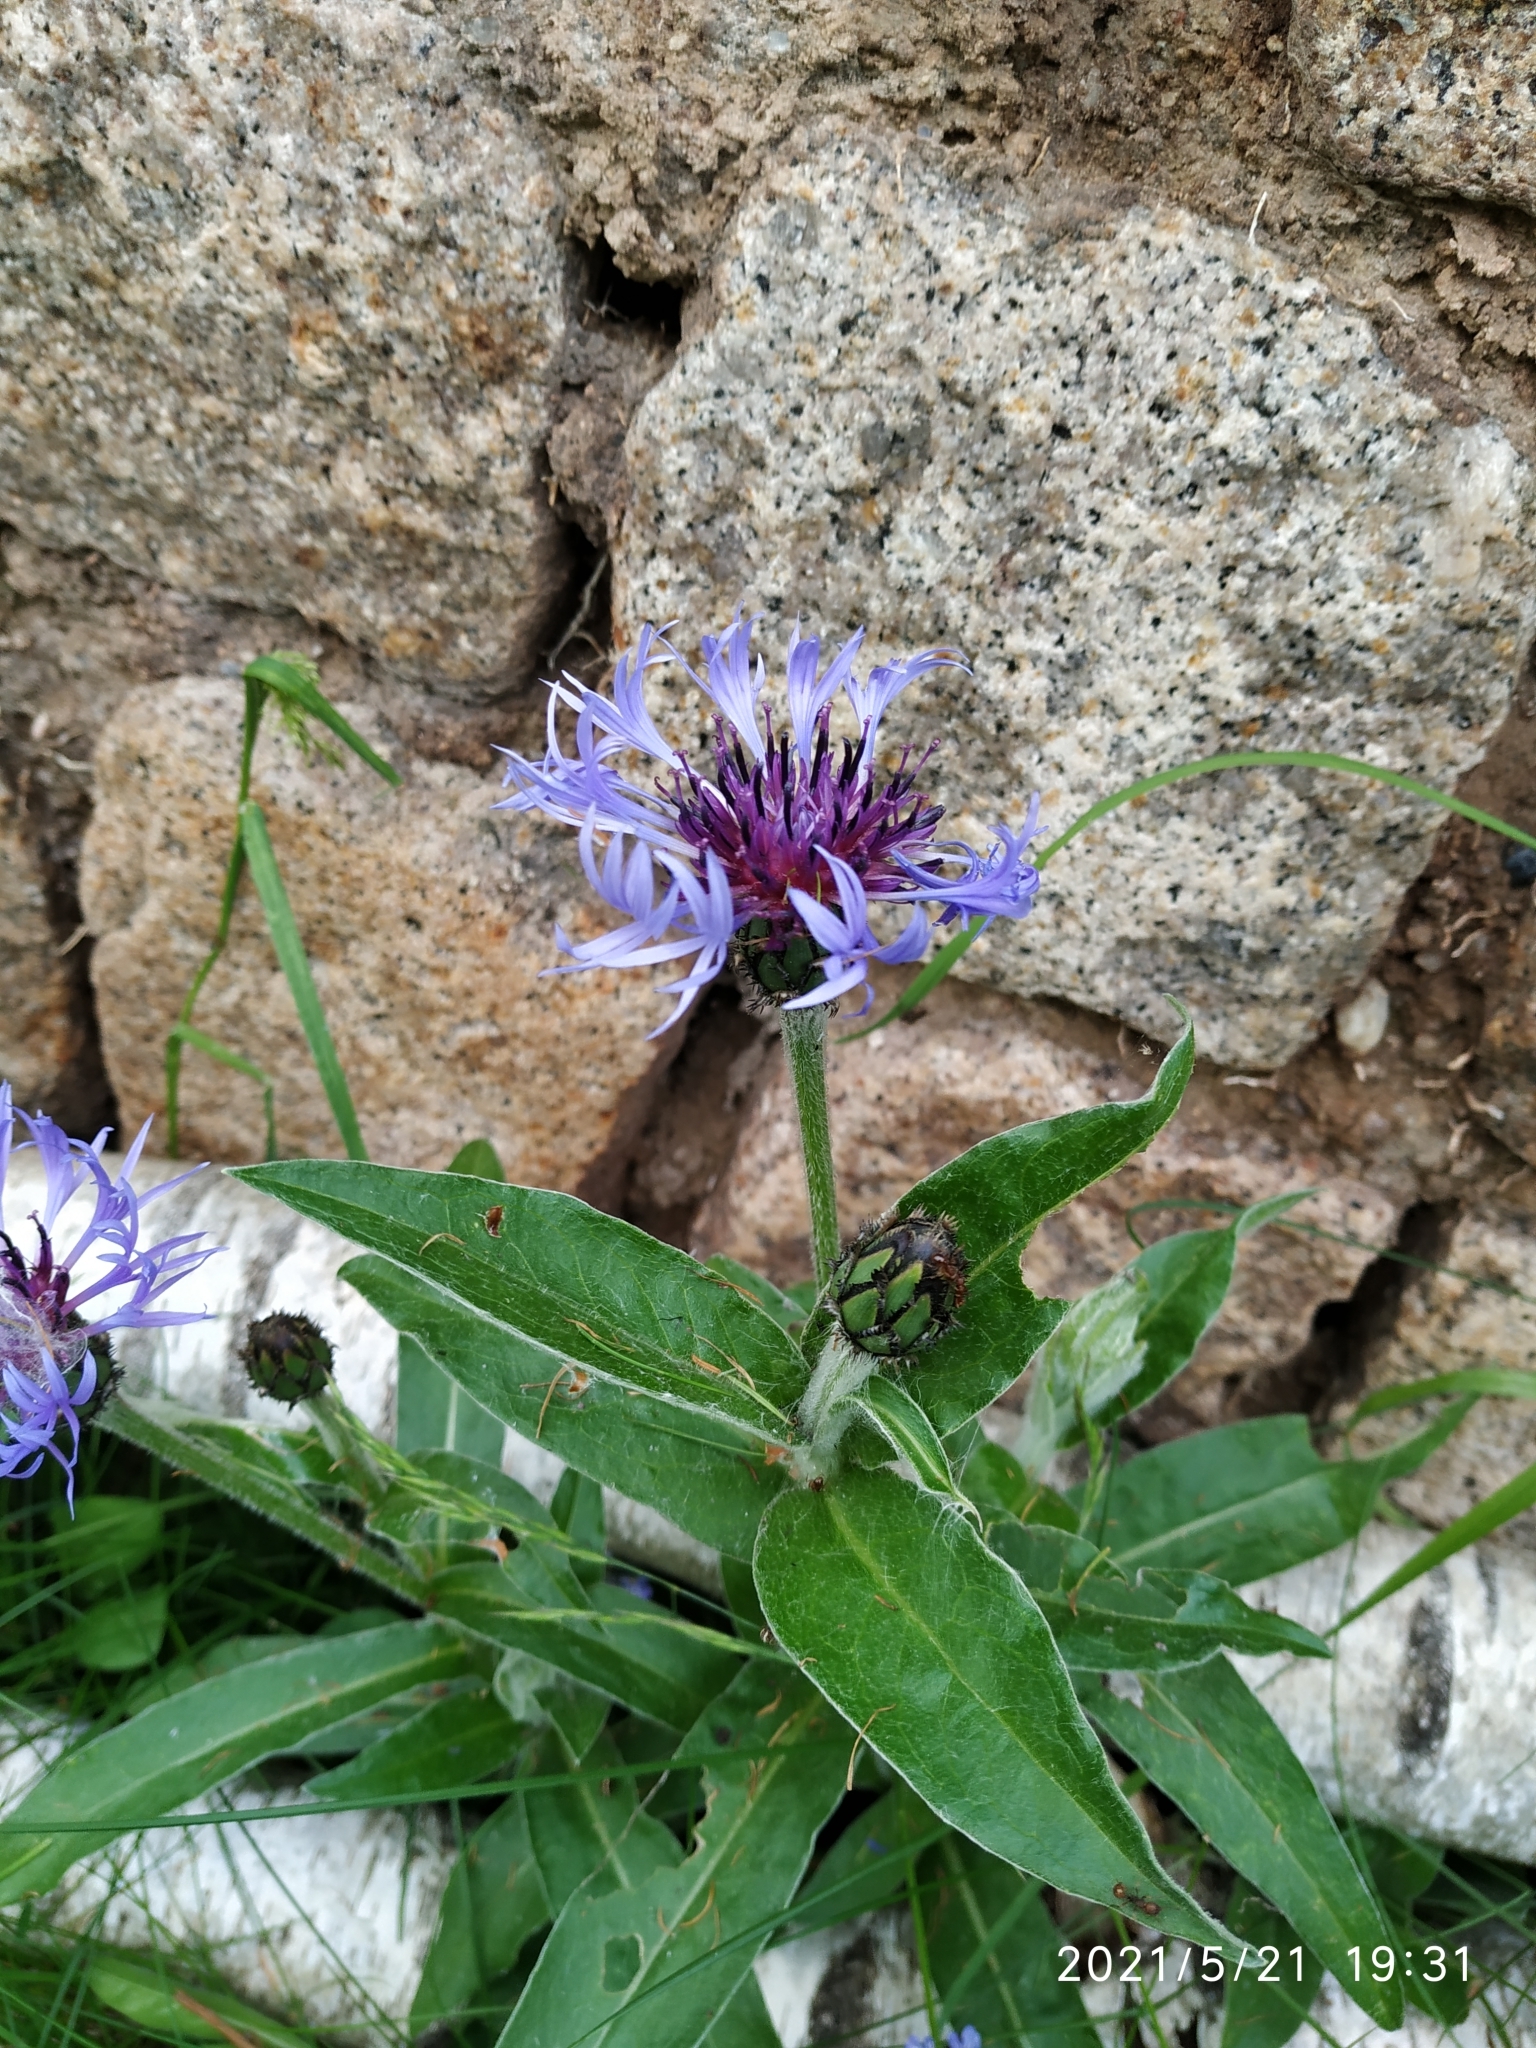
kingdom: Plantae
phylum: Tracheophyta
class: Magnoliopsida
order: Asterales
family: Asteraceae
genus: Centaurea
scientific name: Centaurea montana
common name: Perennial cornflower
